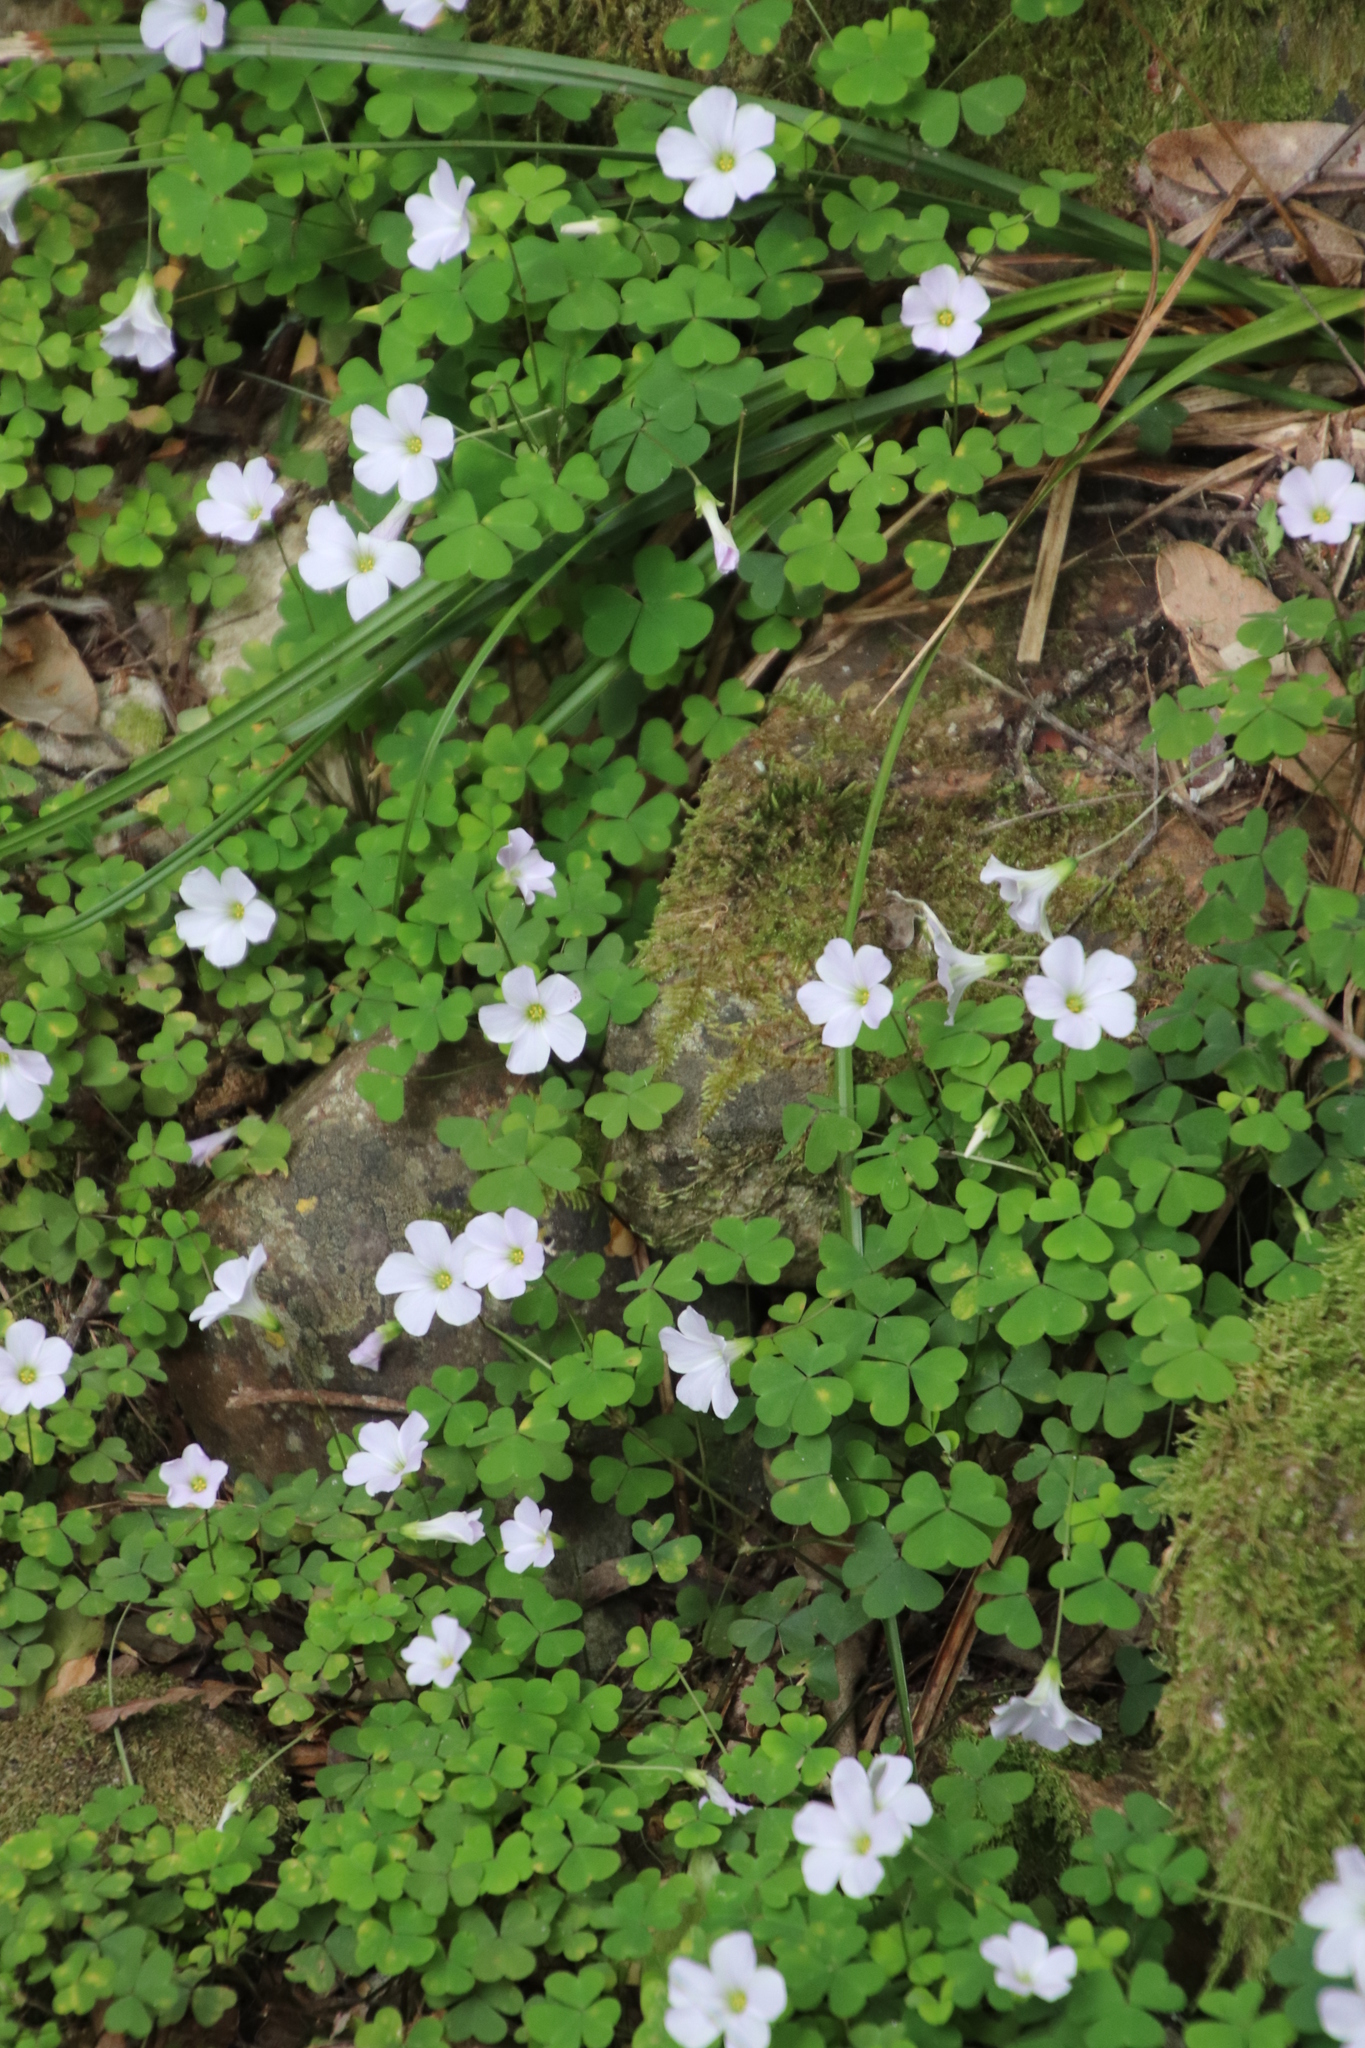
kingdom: Plantae
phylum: Tracheophyta
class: Magnoliopsida
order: Oxalidales
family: Oxalidaceae
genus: Oxalis
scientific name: Oxalis incarnata
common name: Pale pink-sorrel
